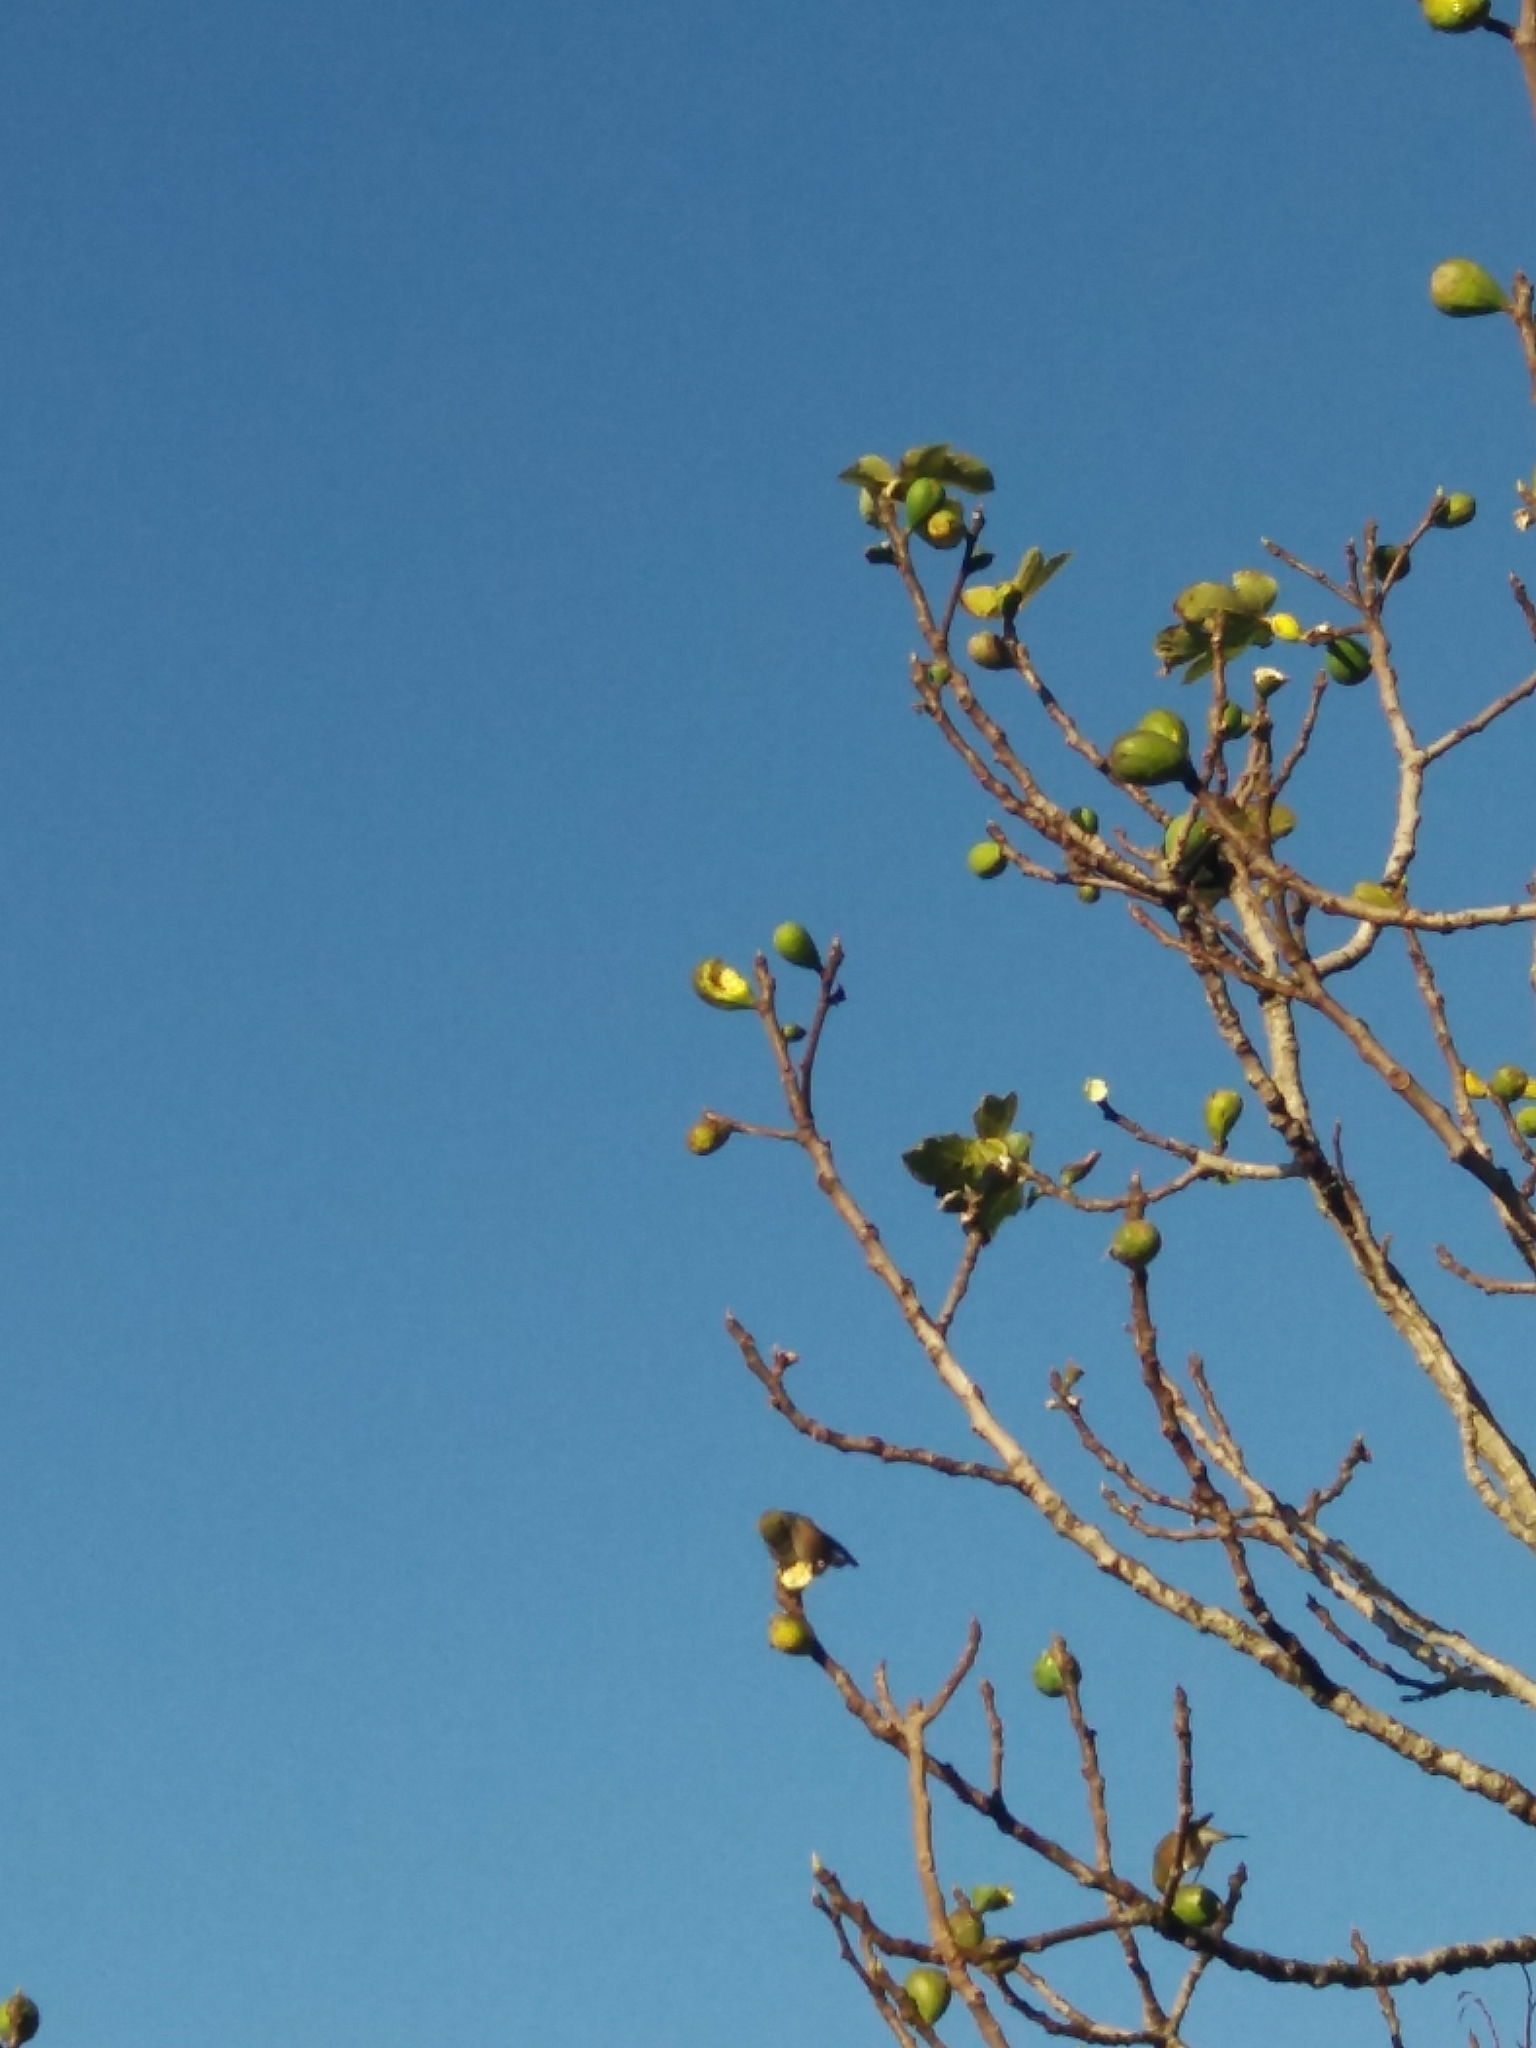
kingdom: Animalia
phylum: Chordata
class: Aves
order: Passeriformes
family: Zosteropidae
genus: Zosterops
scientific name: Zosterops lateralis
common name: Silvereye
